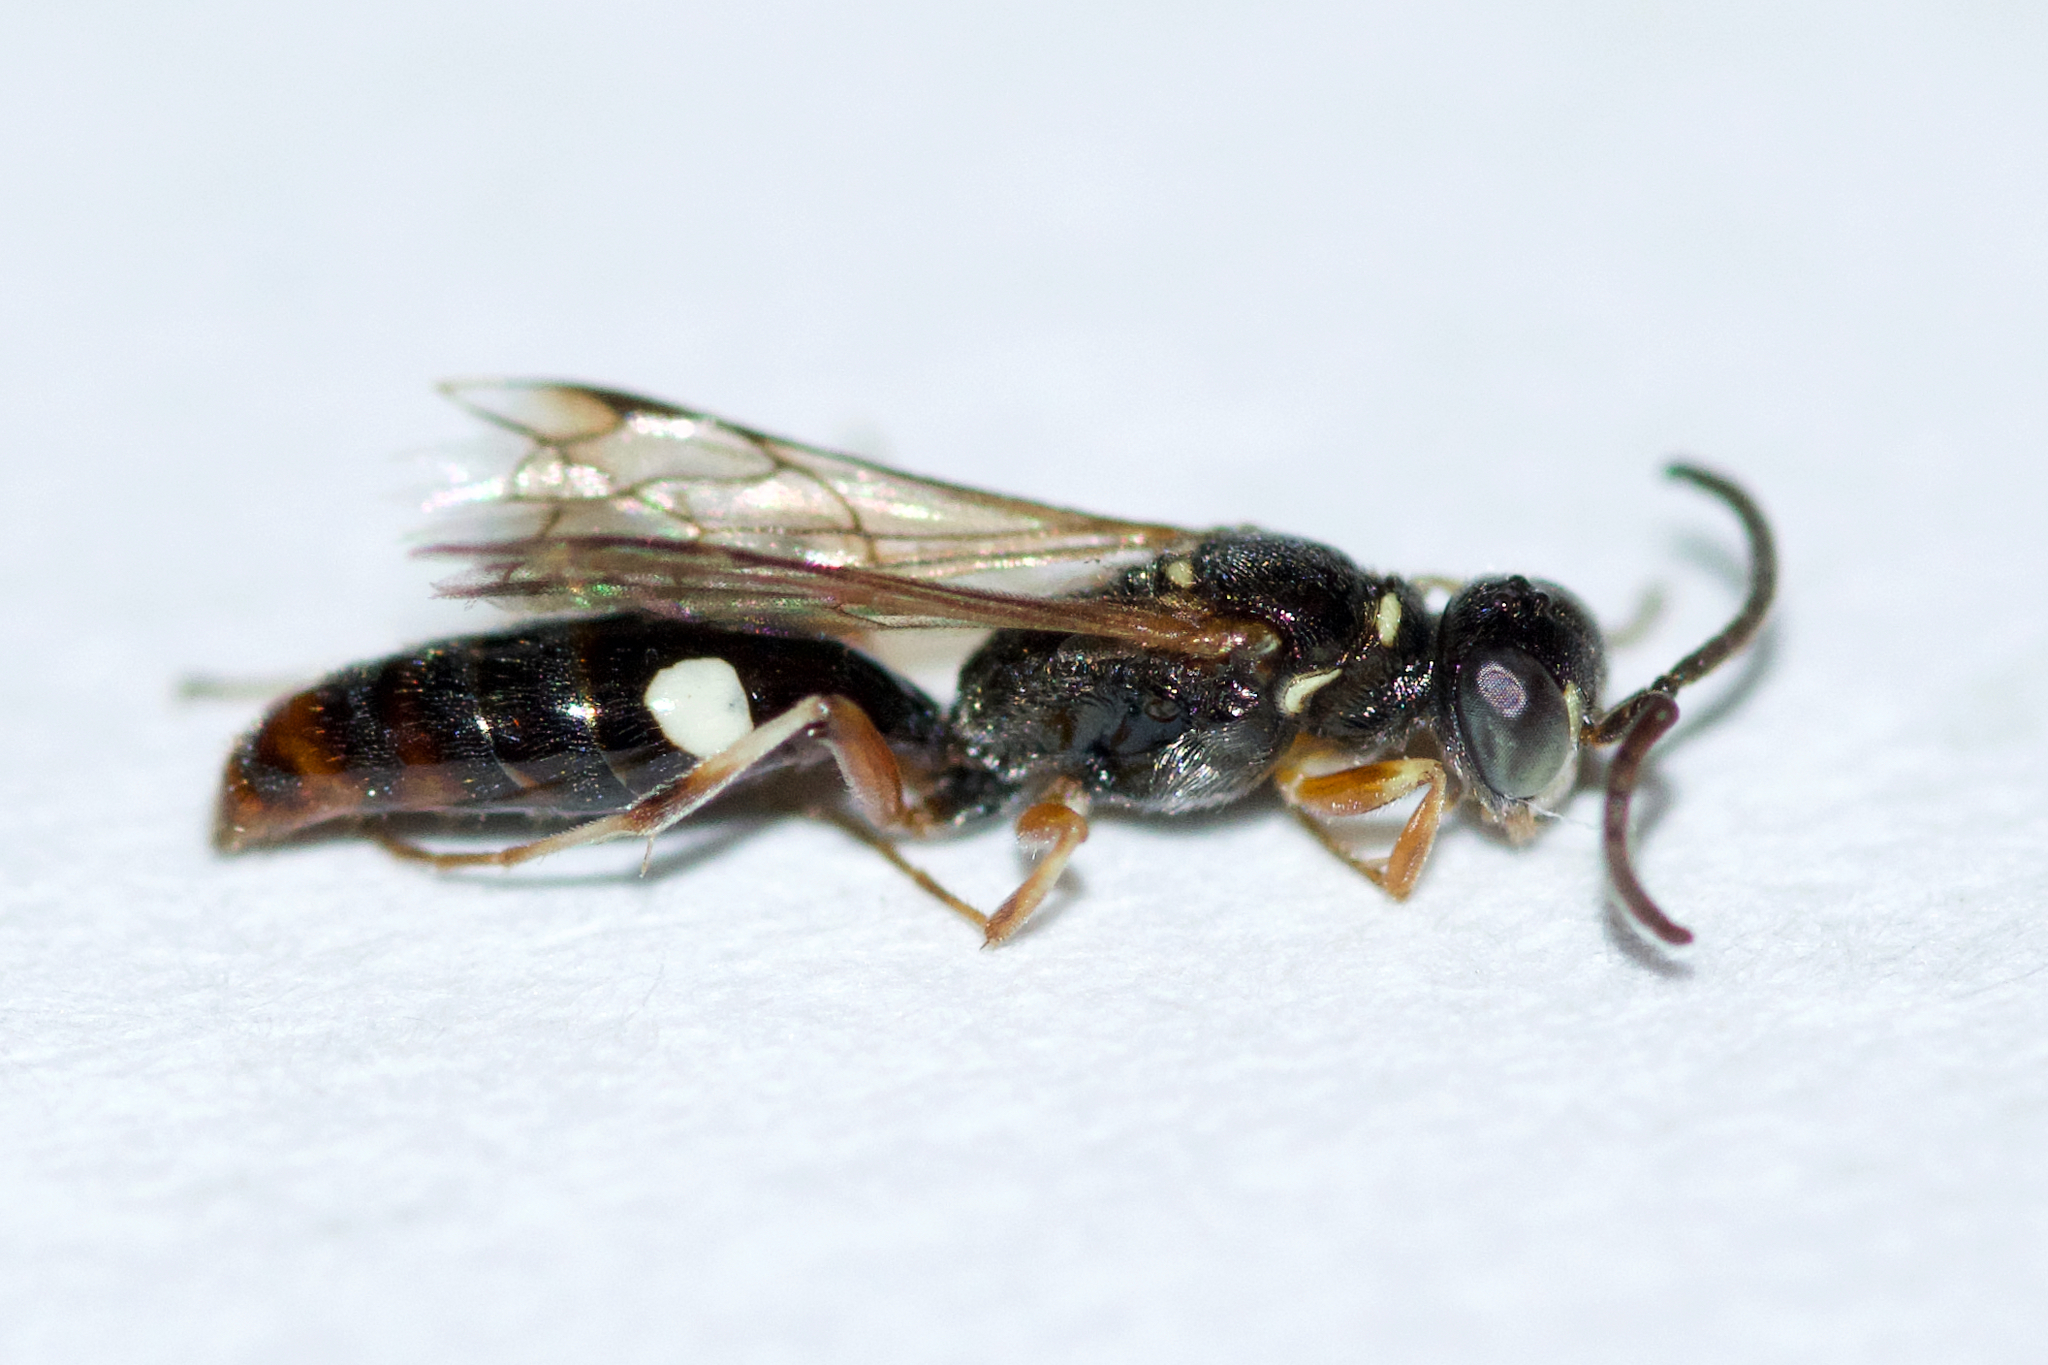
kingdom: Animalia
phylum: Arthropoda
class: Insecta
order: Hymenoptera
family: Crabronidae
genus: Alysson
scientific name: Alysson melleus
